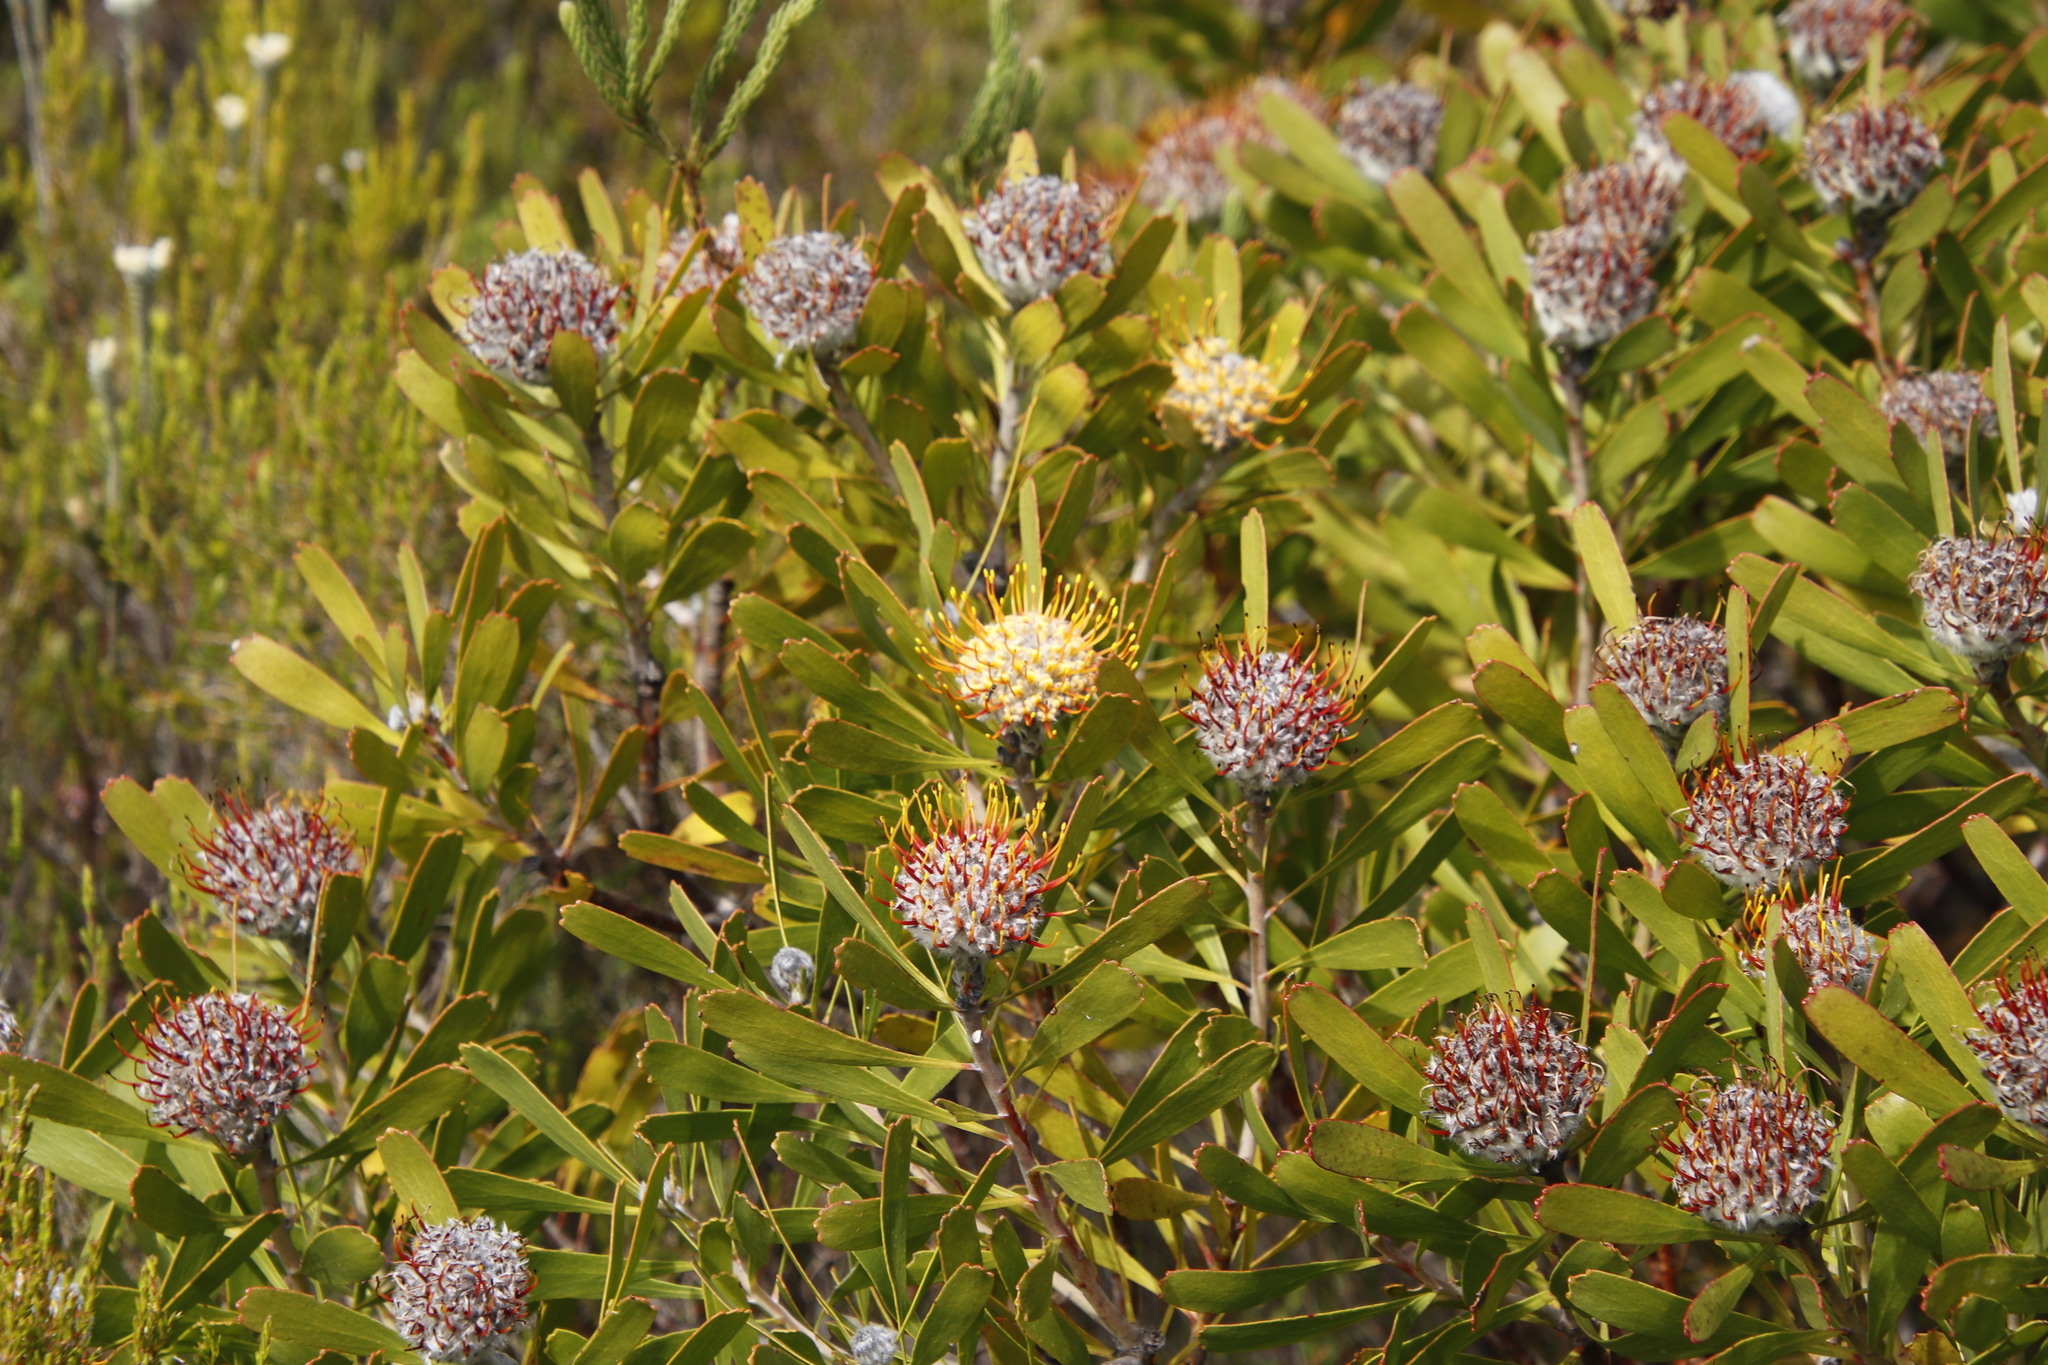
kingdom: Plantae
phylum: Tracheophyta
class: Magnoliopsida
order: Proteales
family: Proteaceae
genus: Leucospermum
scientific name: Leucospermum truncatum
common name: Limestone pincushion
